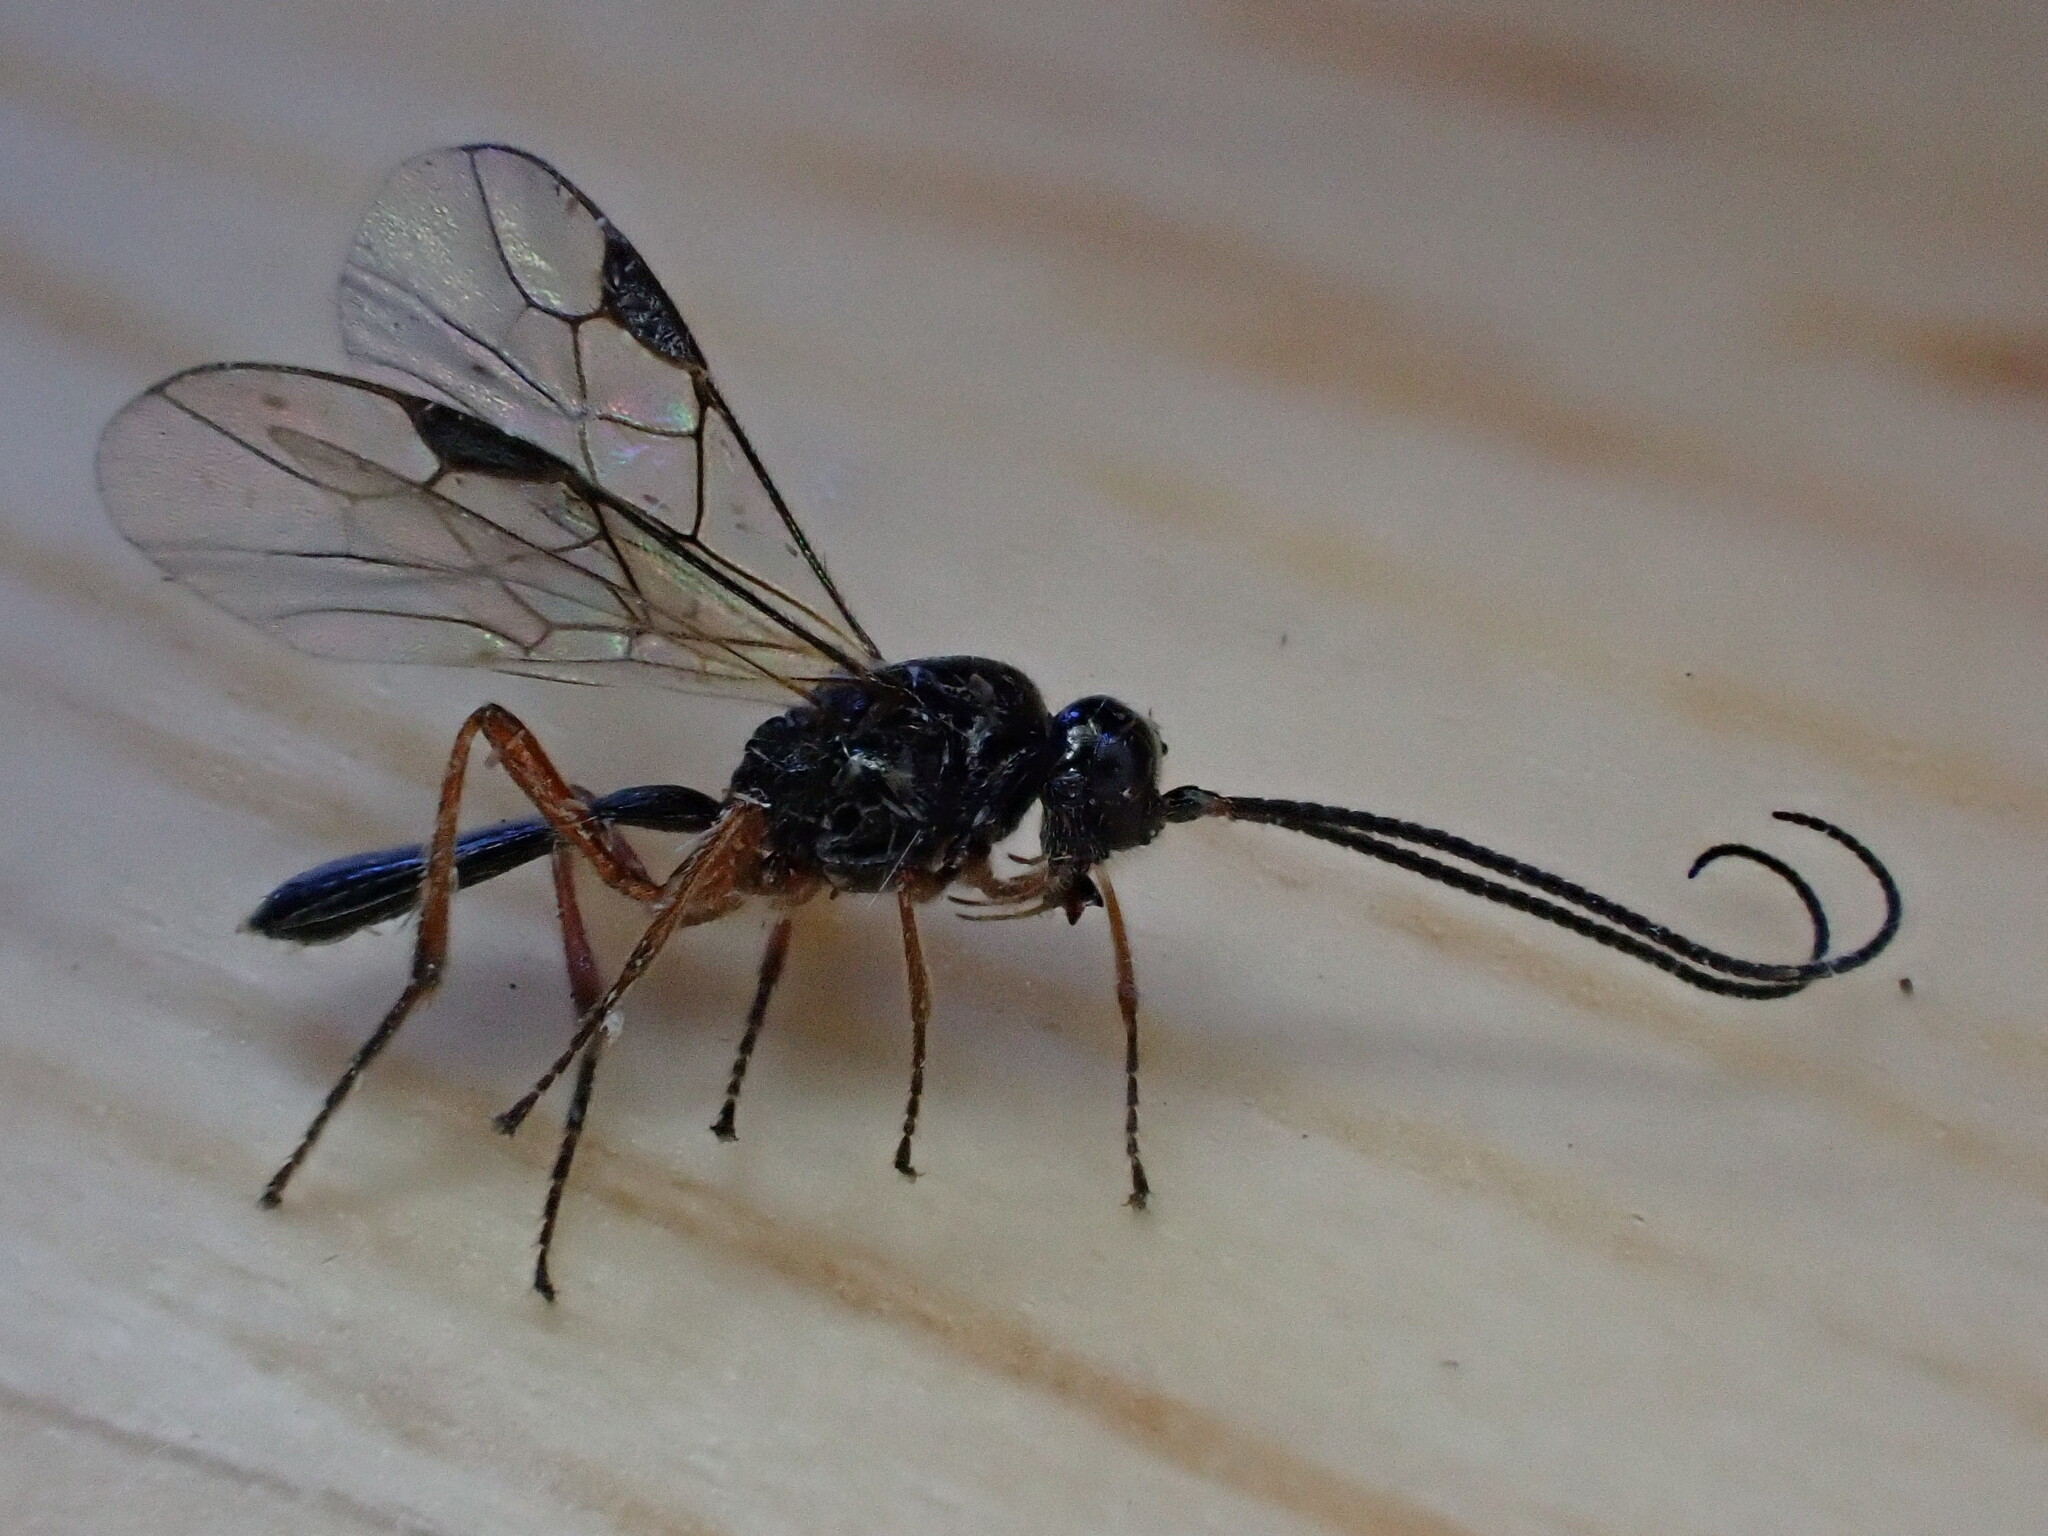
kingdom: Animalia
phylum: Arthropoda
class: Insecta
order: Hymenoptera
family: Braconidae
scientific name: Braconidae
